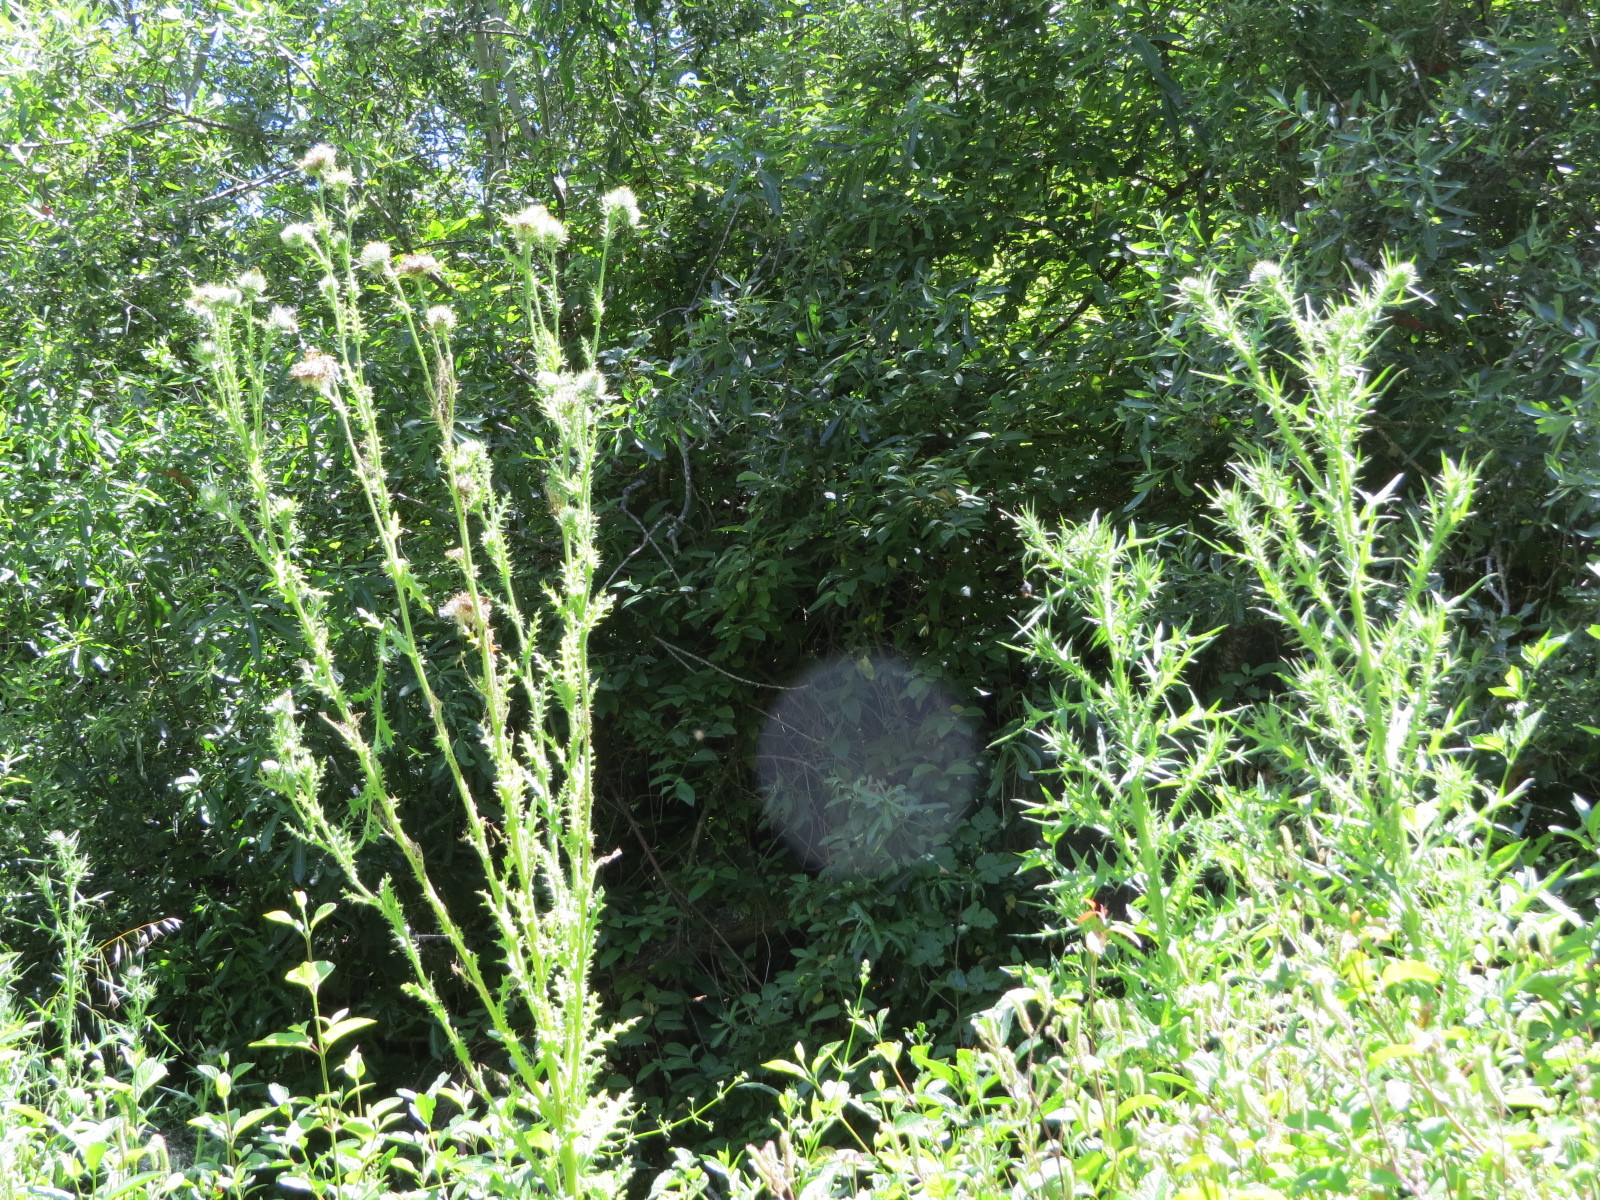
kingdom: Plantae
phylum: Tracheophyta
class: Magnoliopsida
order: Asterales
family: Asteraceae
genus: Cirsium
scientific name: Cirsium occidentale
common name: Western thistle
